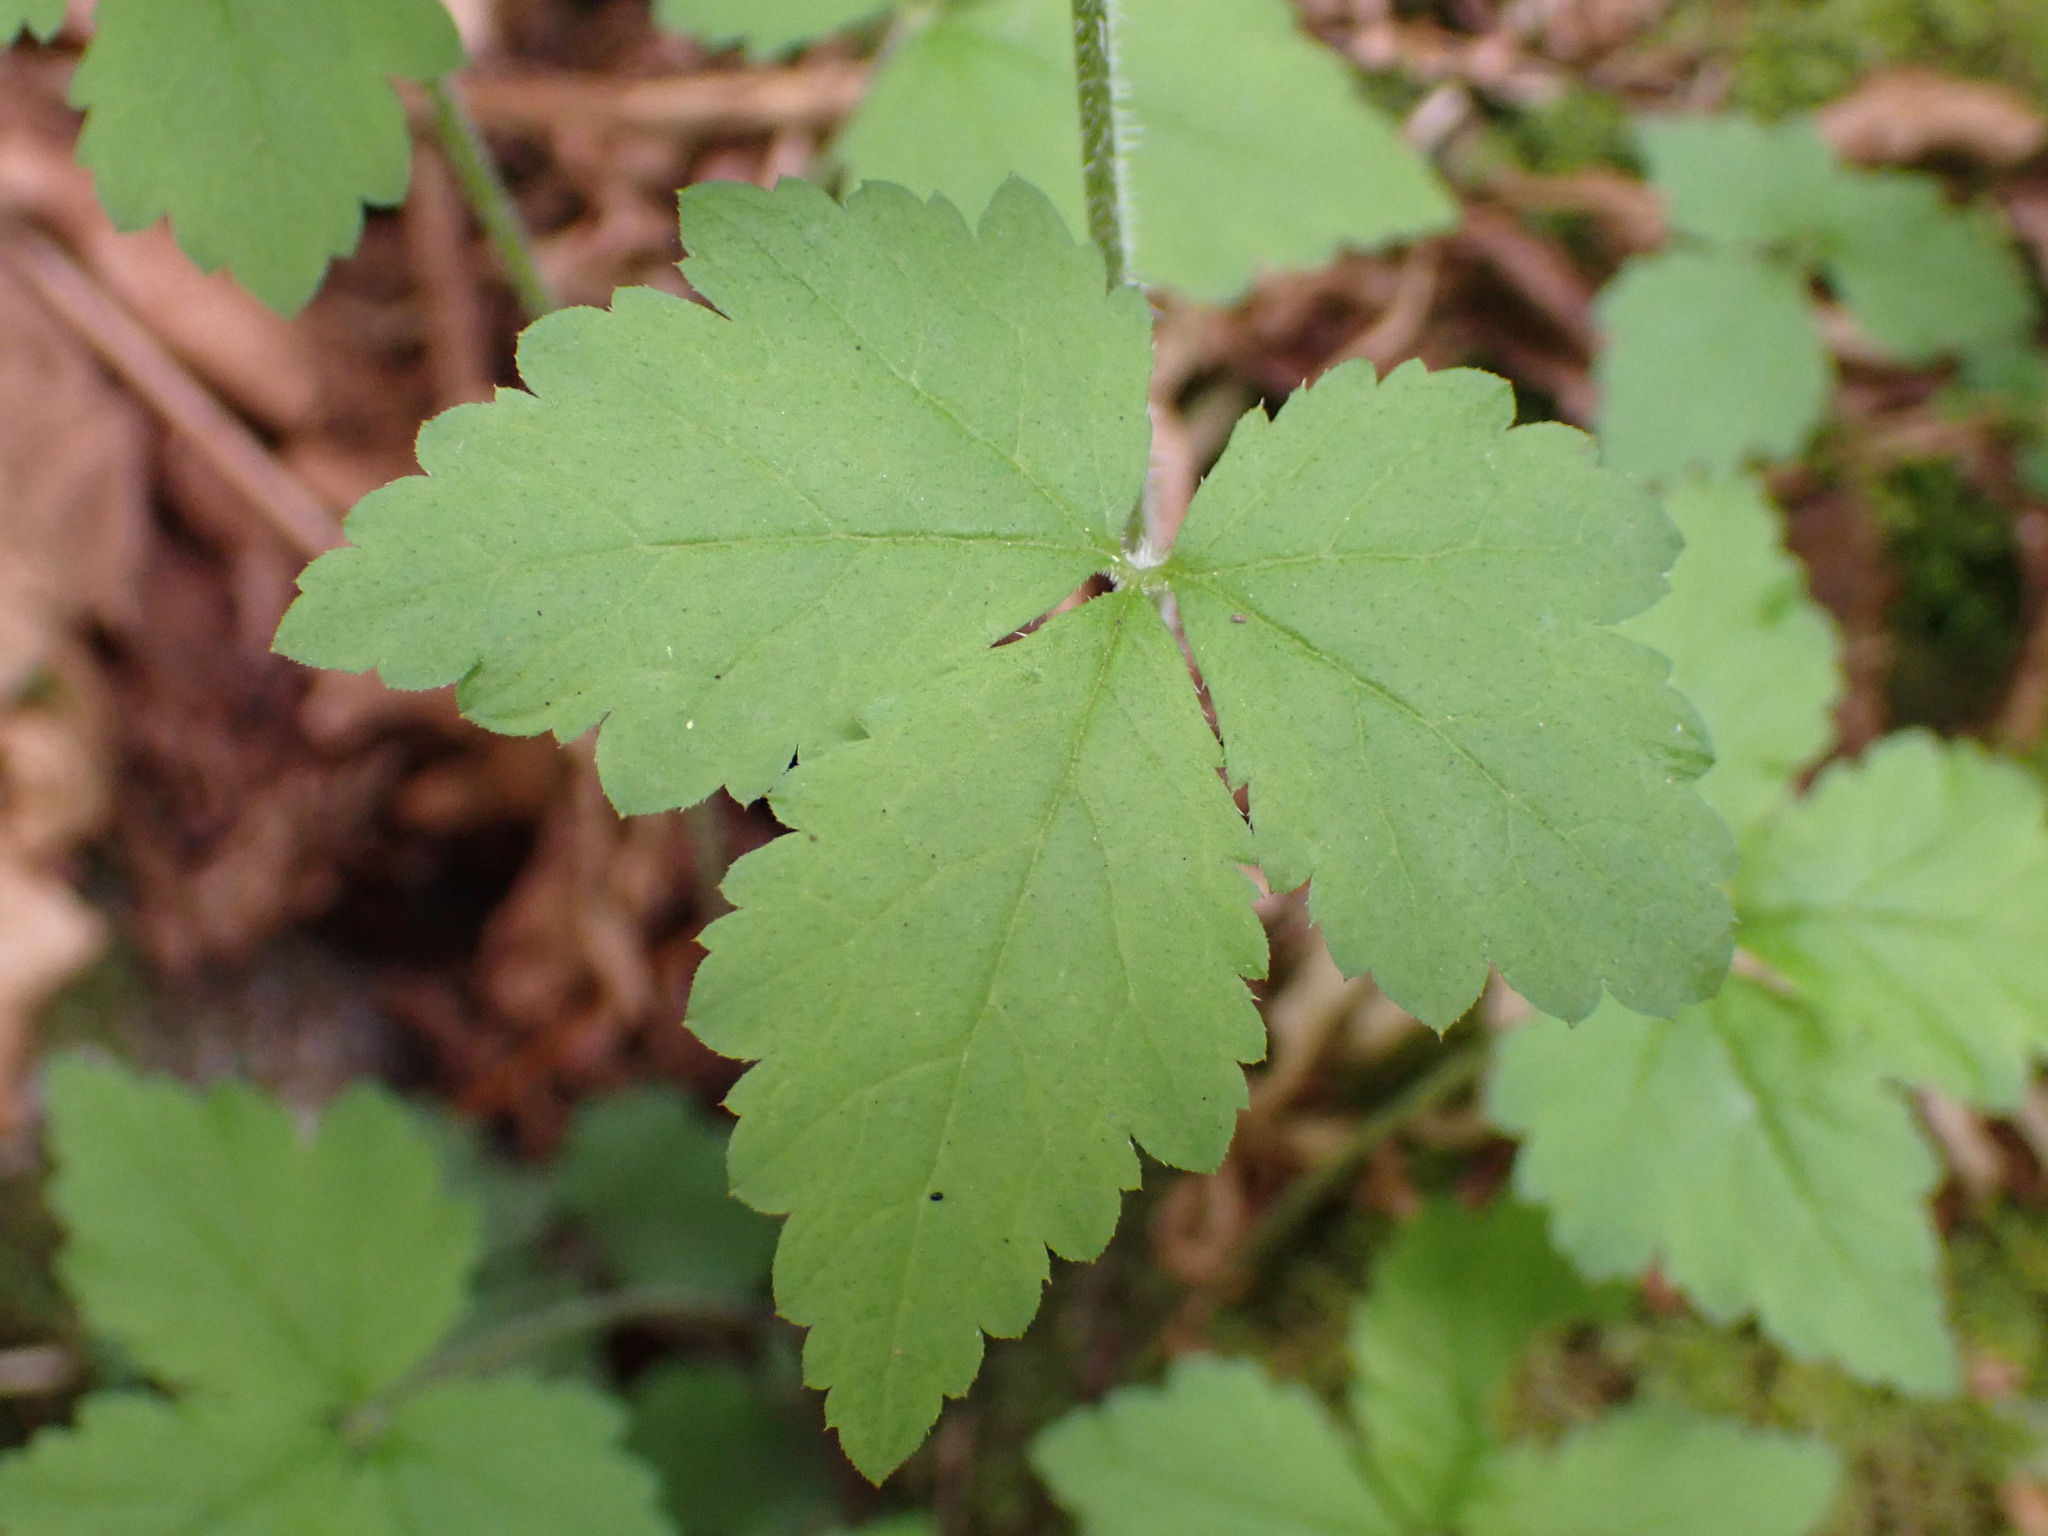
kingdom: Plantae
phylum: Tracheophyta
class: Magnoliopsida
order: Saxifragales
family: Saxifragaceae
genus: Tiarella
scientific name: Tiarella trifoliata
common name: Sugar-scoop
